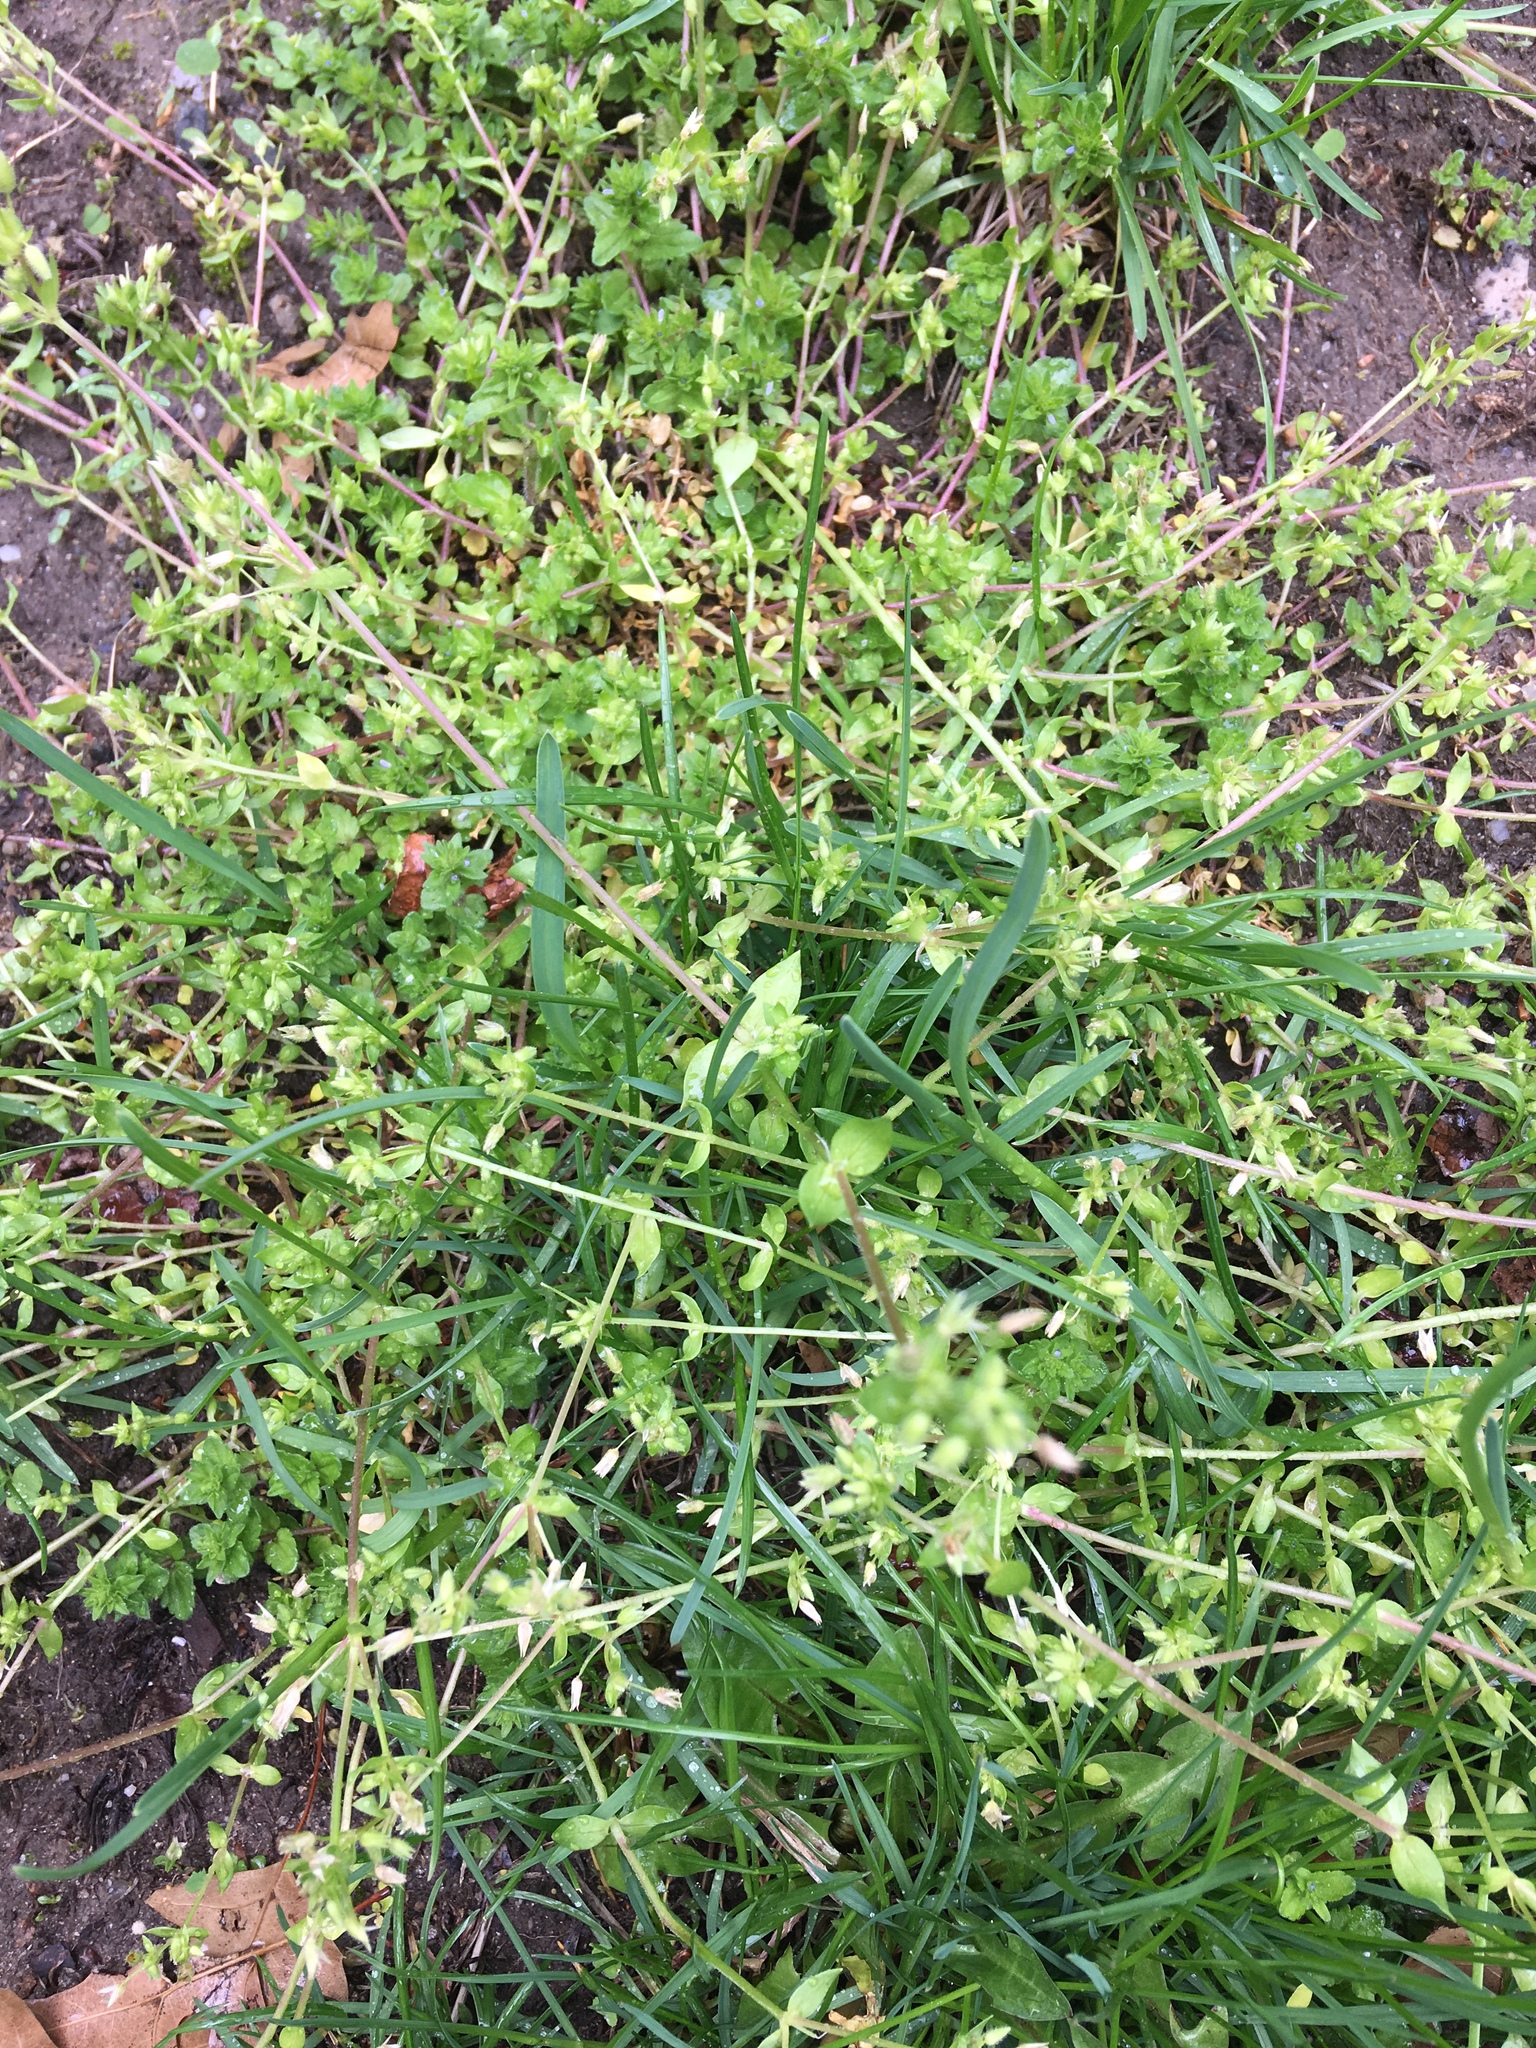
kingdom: Plantae
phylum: Tracheophyta
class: Magnoliopsida
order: Caryophyllales
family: Caryophyllaceae
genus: Stellaria
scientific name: Stellaria apetala
